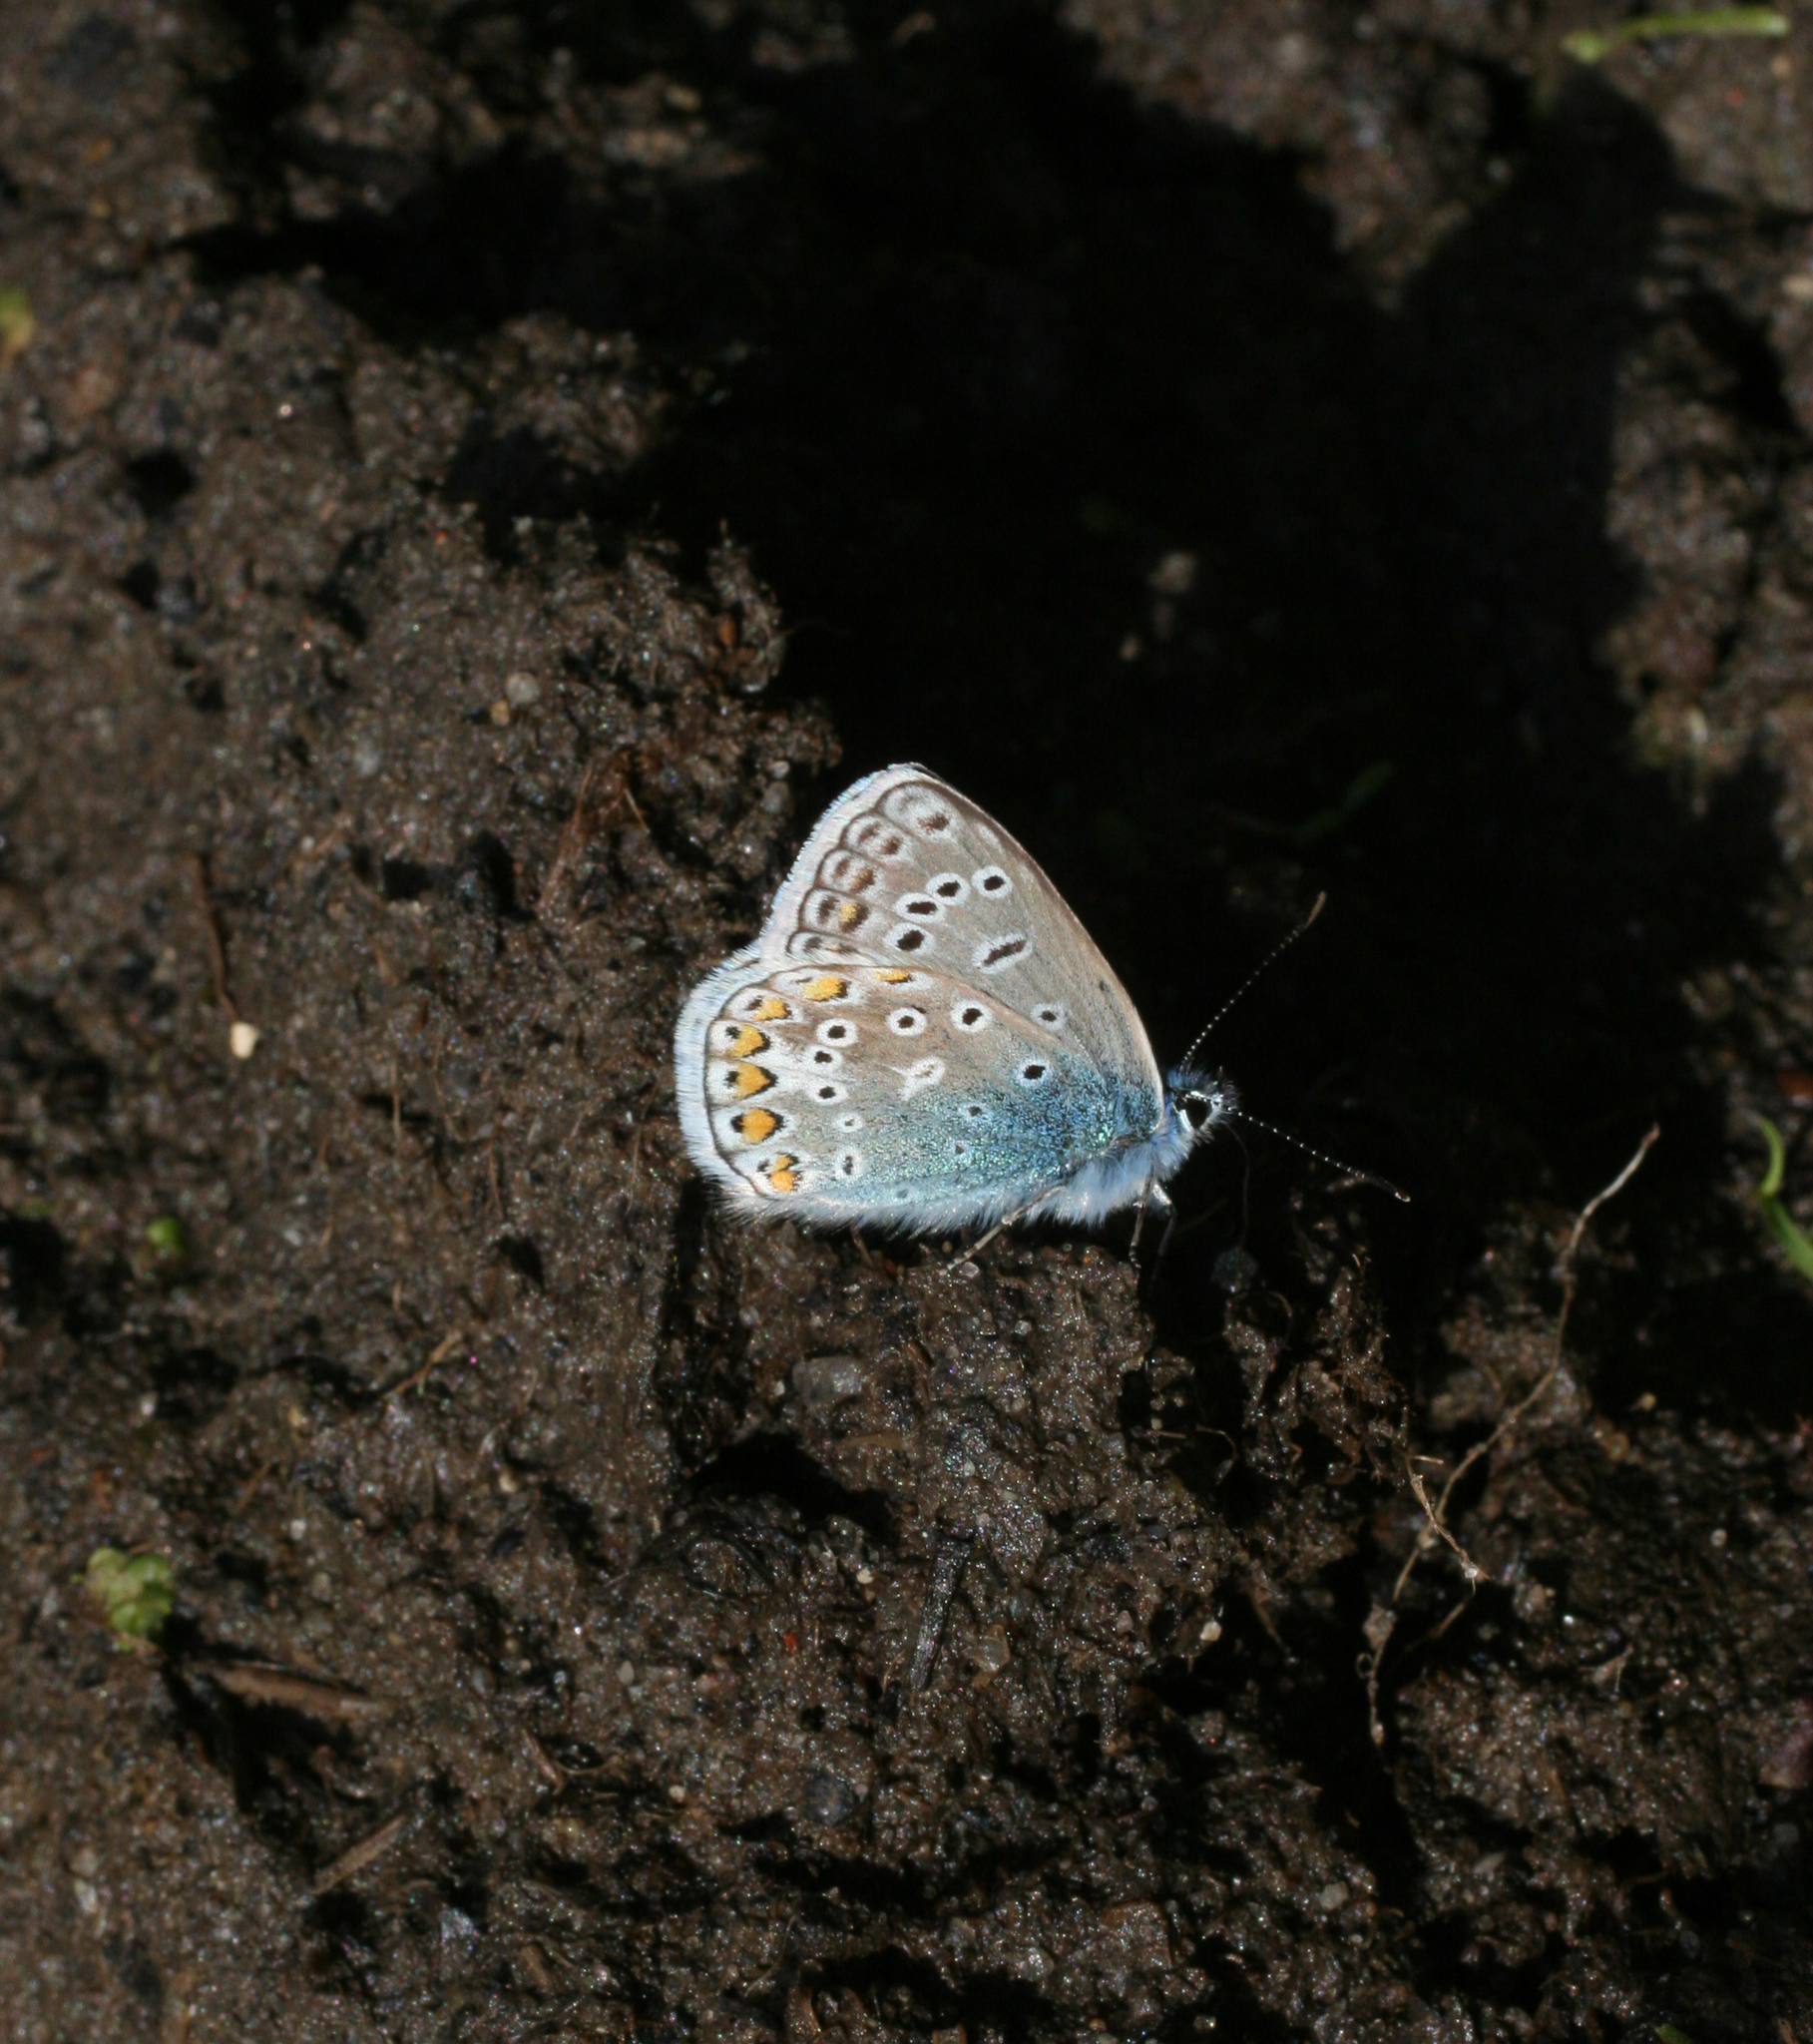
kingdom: Animalia
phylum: Arthropoda
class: Insecta
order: Lepidoptera
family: Lycaenidae
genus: Polyommatus
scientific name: Polyommatus icarus
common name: Common blue
